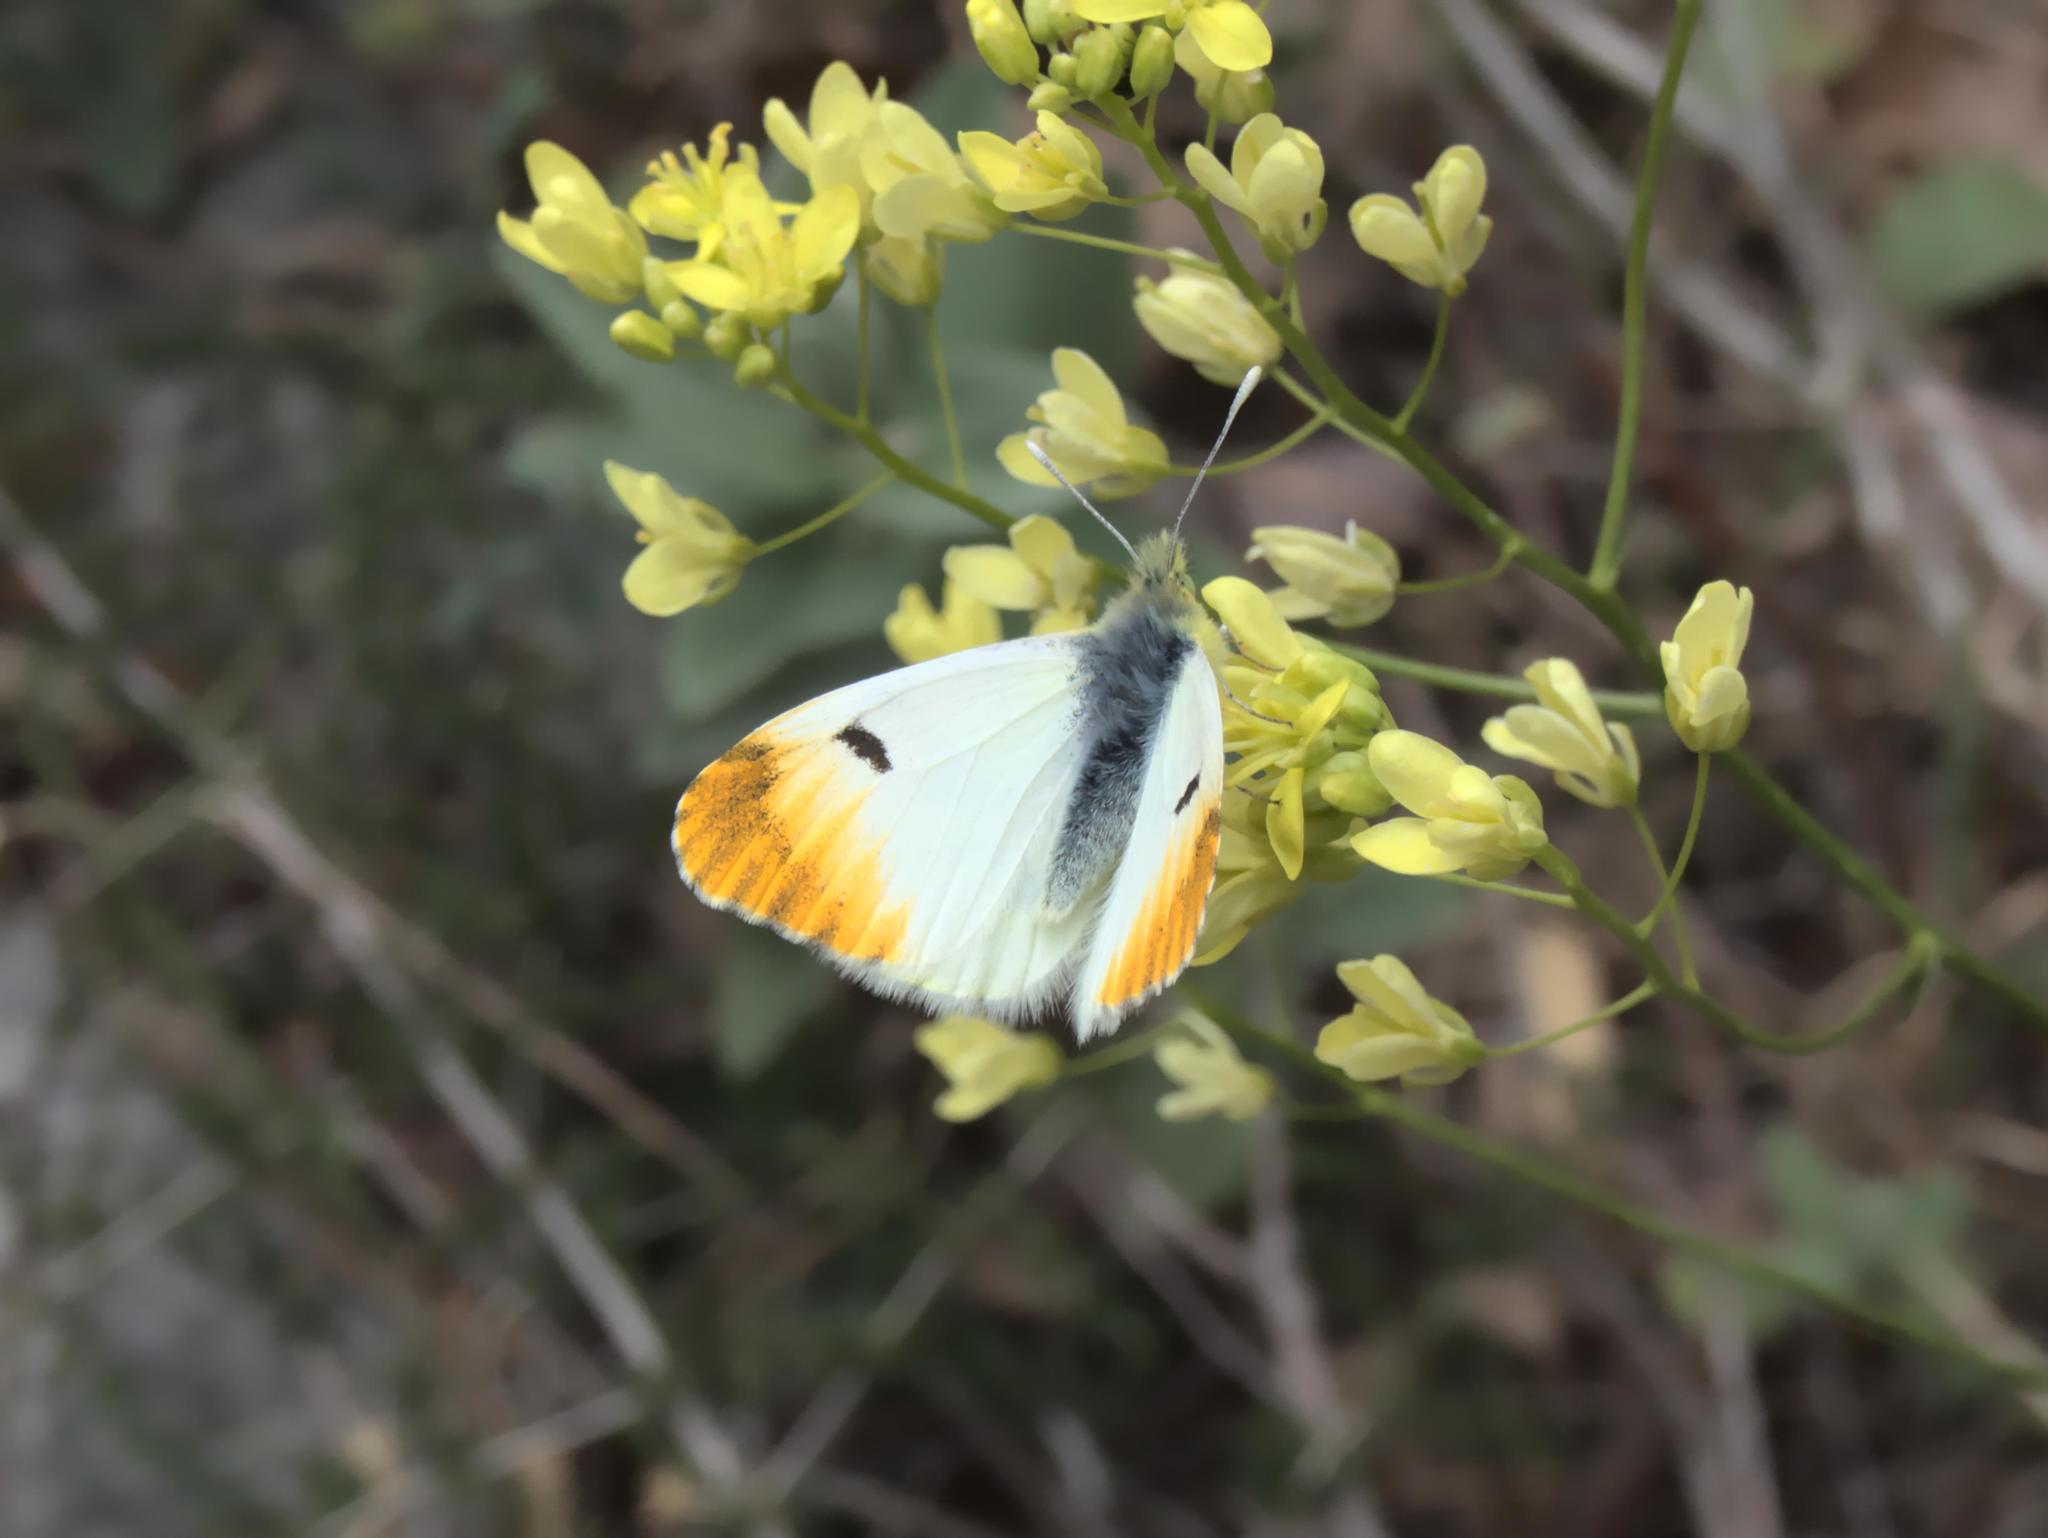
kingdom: Animalia
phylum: Arthropoda
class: Insecta
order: Lepidoptera
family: Pieridae
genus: Anthocharis
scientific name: Anthocharis euphenoides
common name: Provence orange-tip
